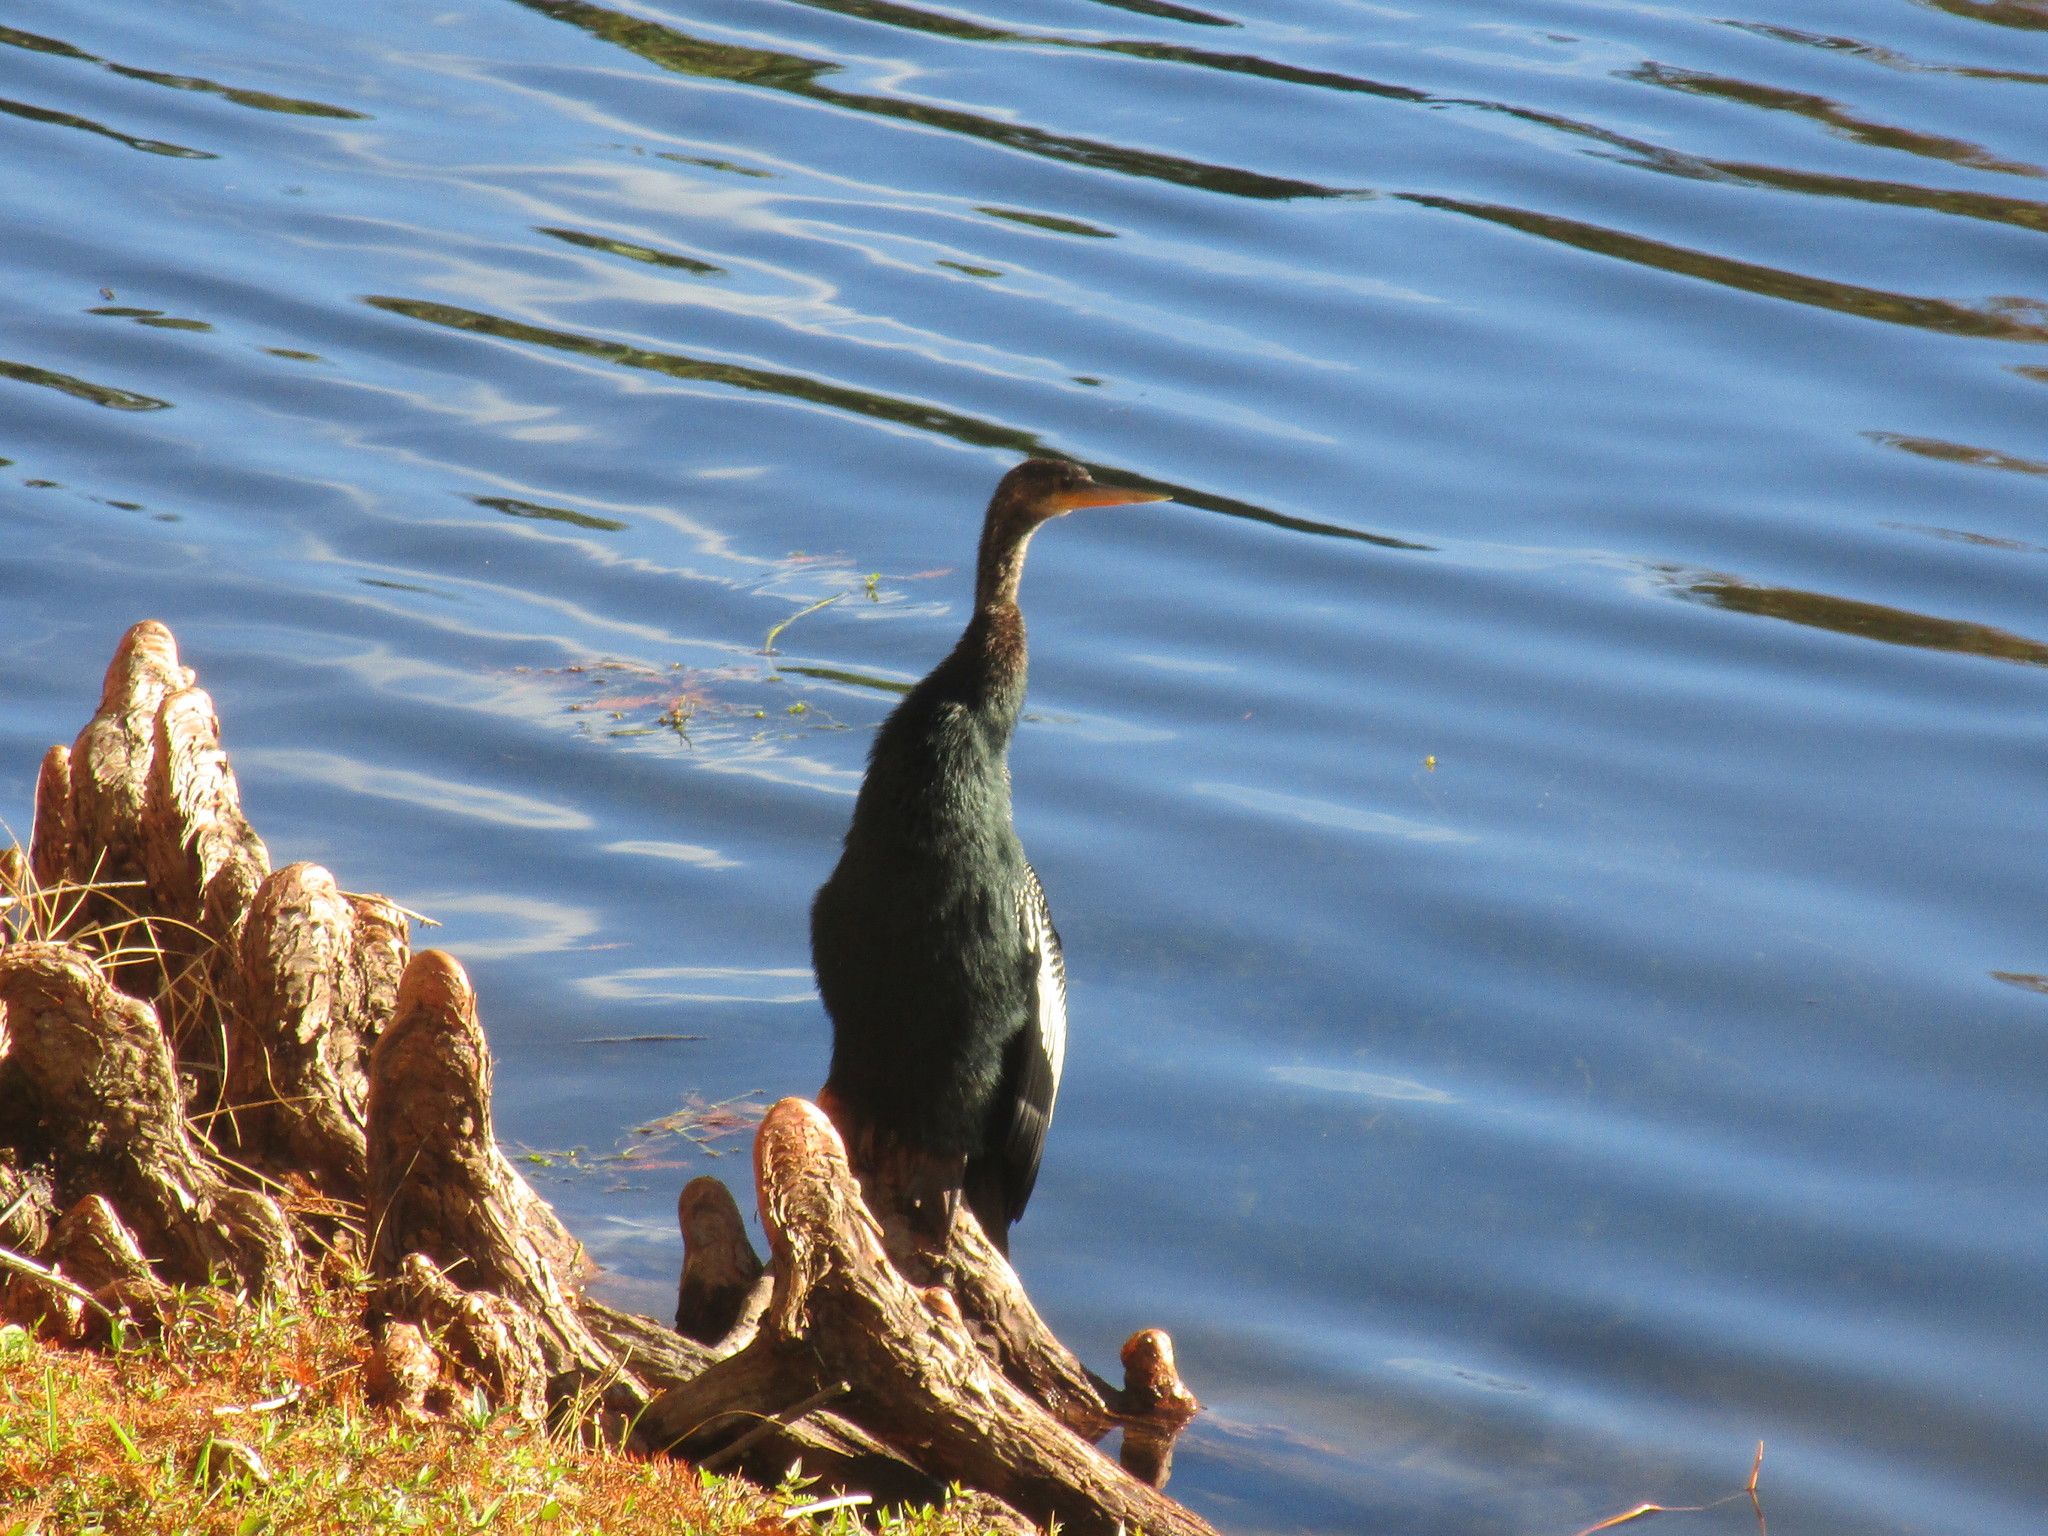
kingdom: Animalia
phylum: Chordata
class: Aves
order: Suliformes
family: Anhingidae
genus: Anhinga
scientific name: Anhinga anhinga
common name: Anhinga
